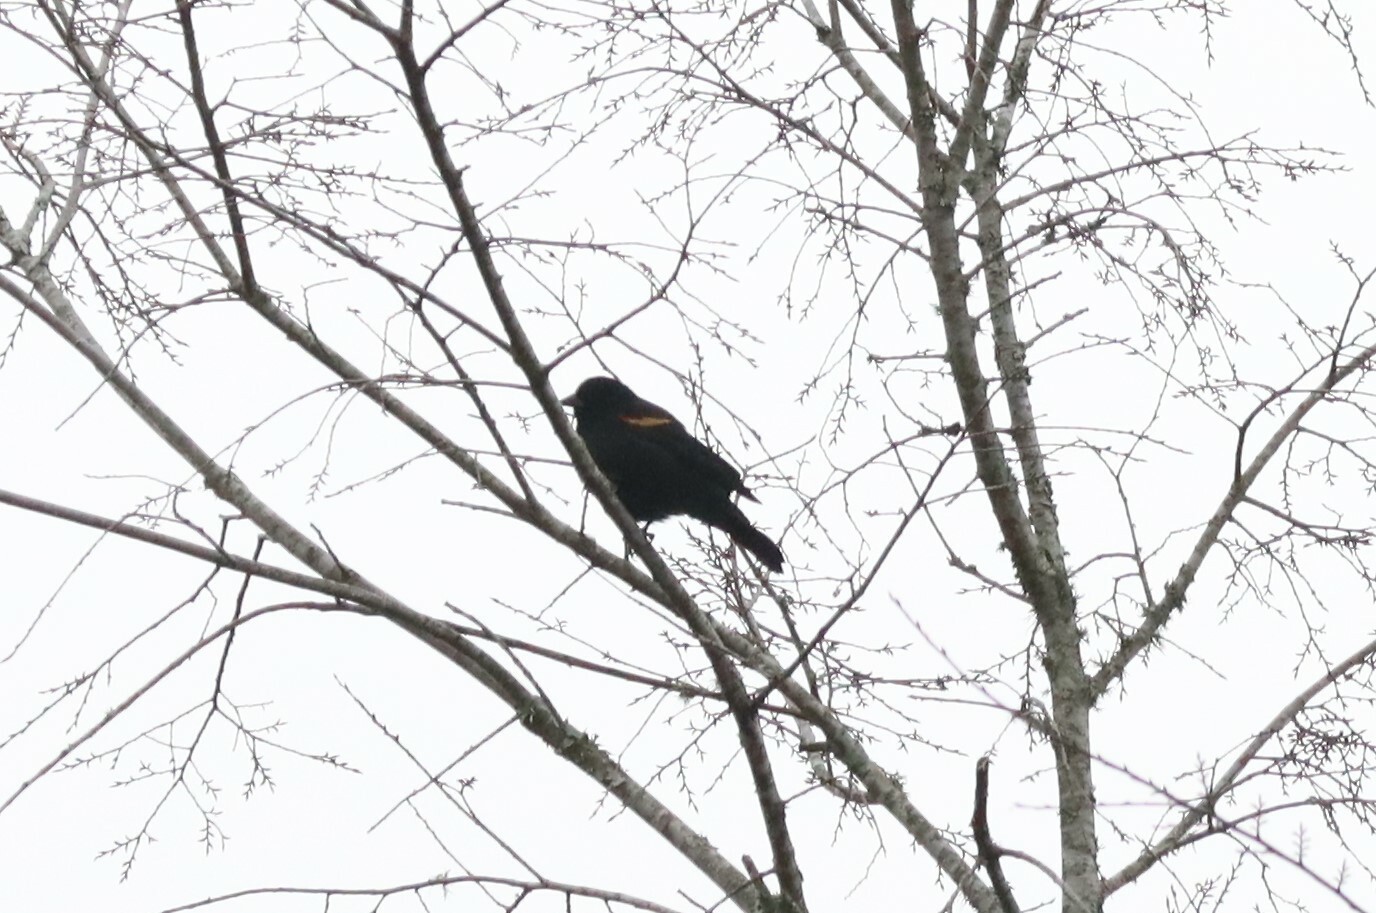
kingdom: Animalia
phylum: Chordata
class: Aves
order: Passeriformes
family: Icteridae
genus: Agelaius
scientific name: Agelaius phoeniceus
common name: Red-winged blackbird
